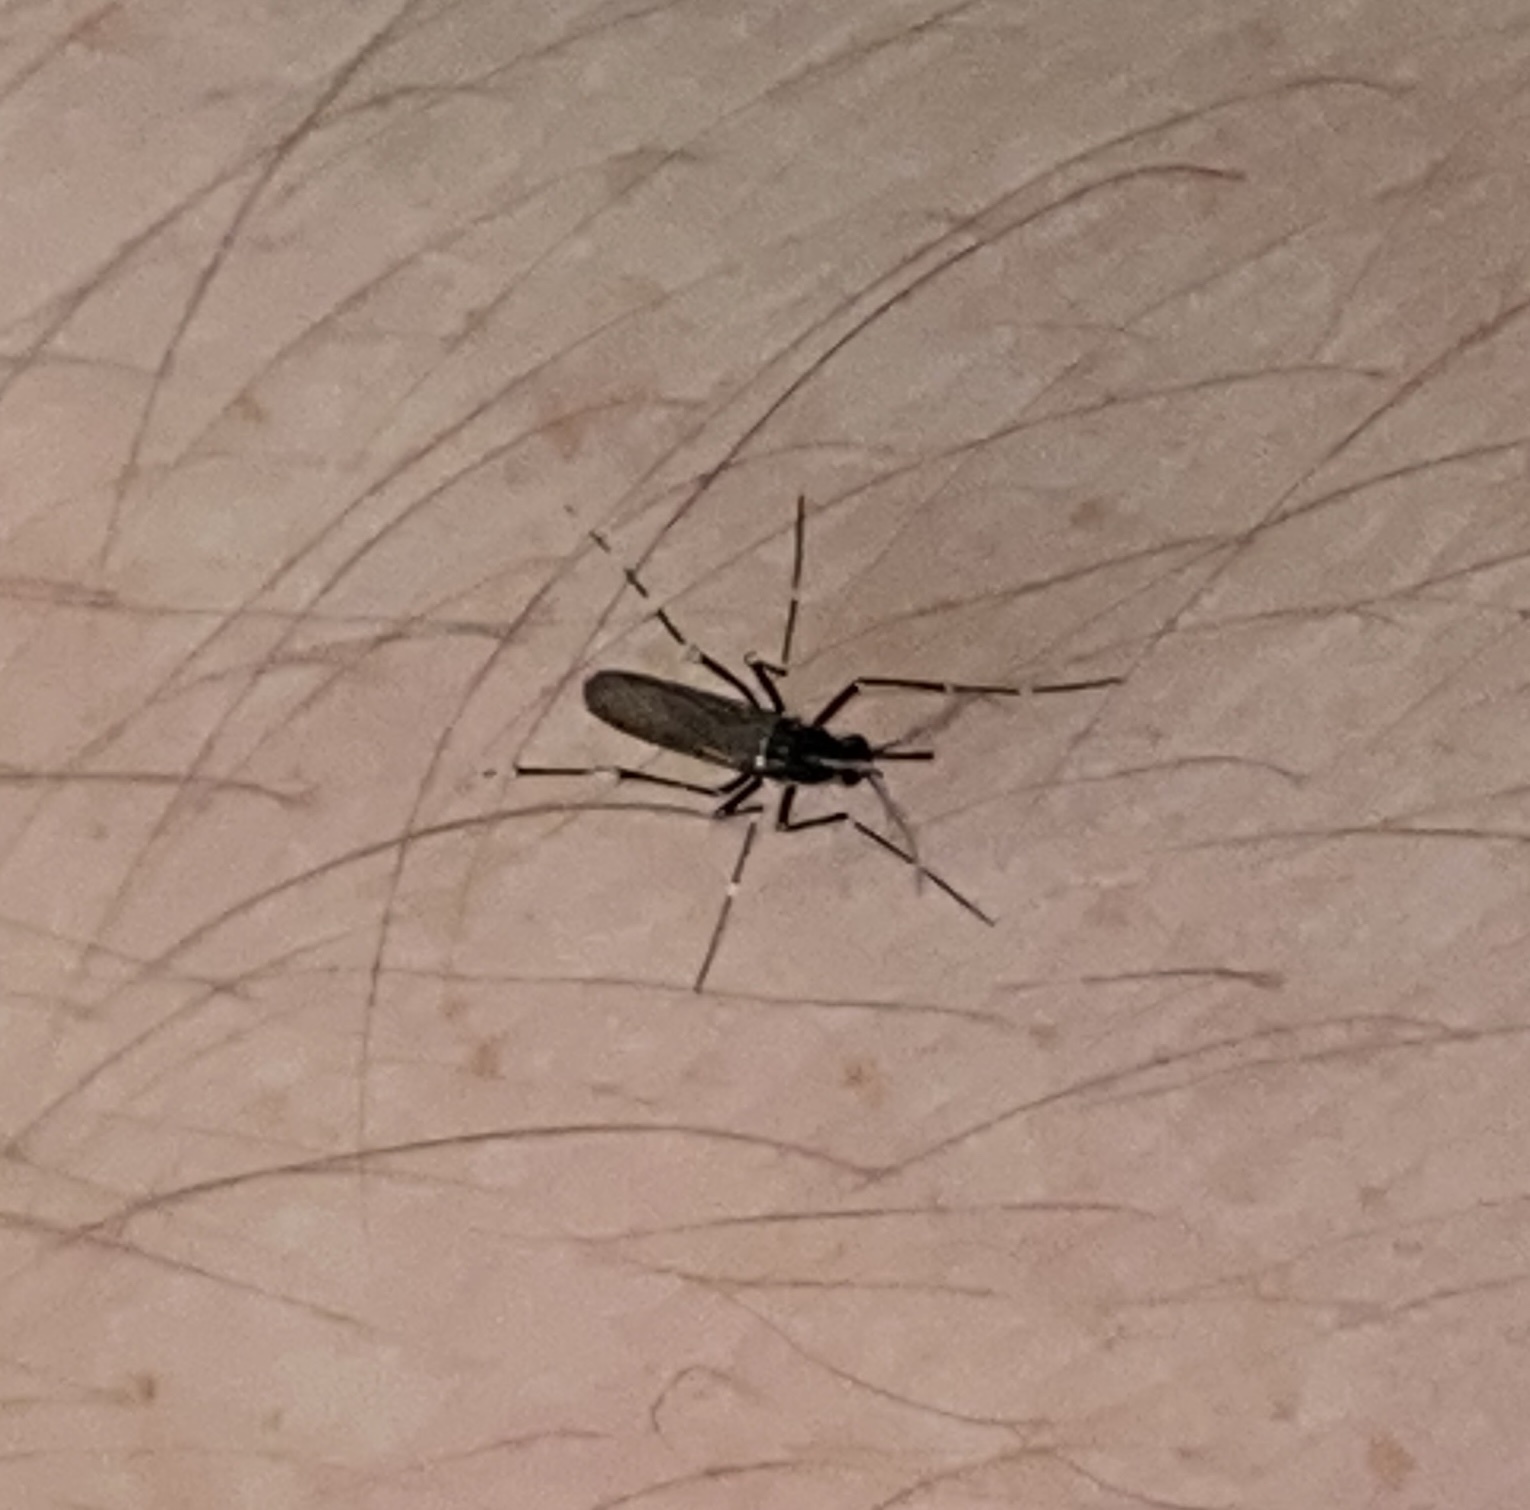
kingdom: Animalia
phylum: Arthropoda
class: Insecta
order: Diptera
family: Culicidae
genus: Aedes
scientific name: Aedes albopictus
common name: Tiger mosquito
